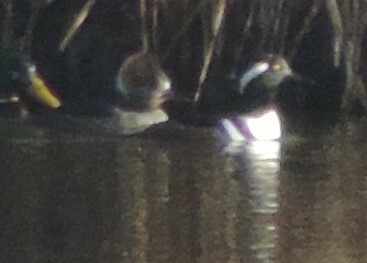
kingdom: Animalia
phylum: Chordata
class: Aves
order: Anseriformes
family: Anatidae
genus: Lophodytes
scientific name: Lophodytes cucullatus
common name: Hooded merganser
